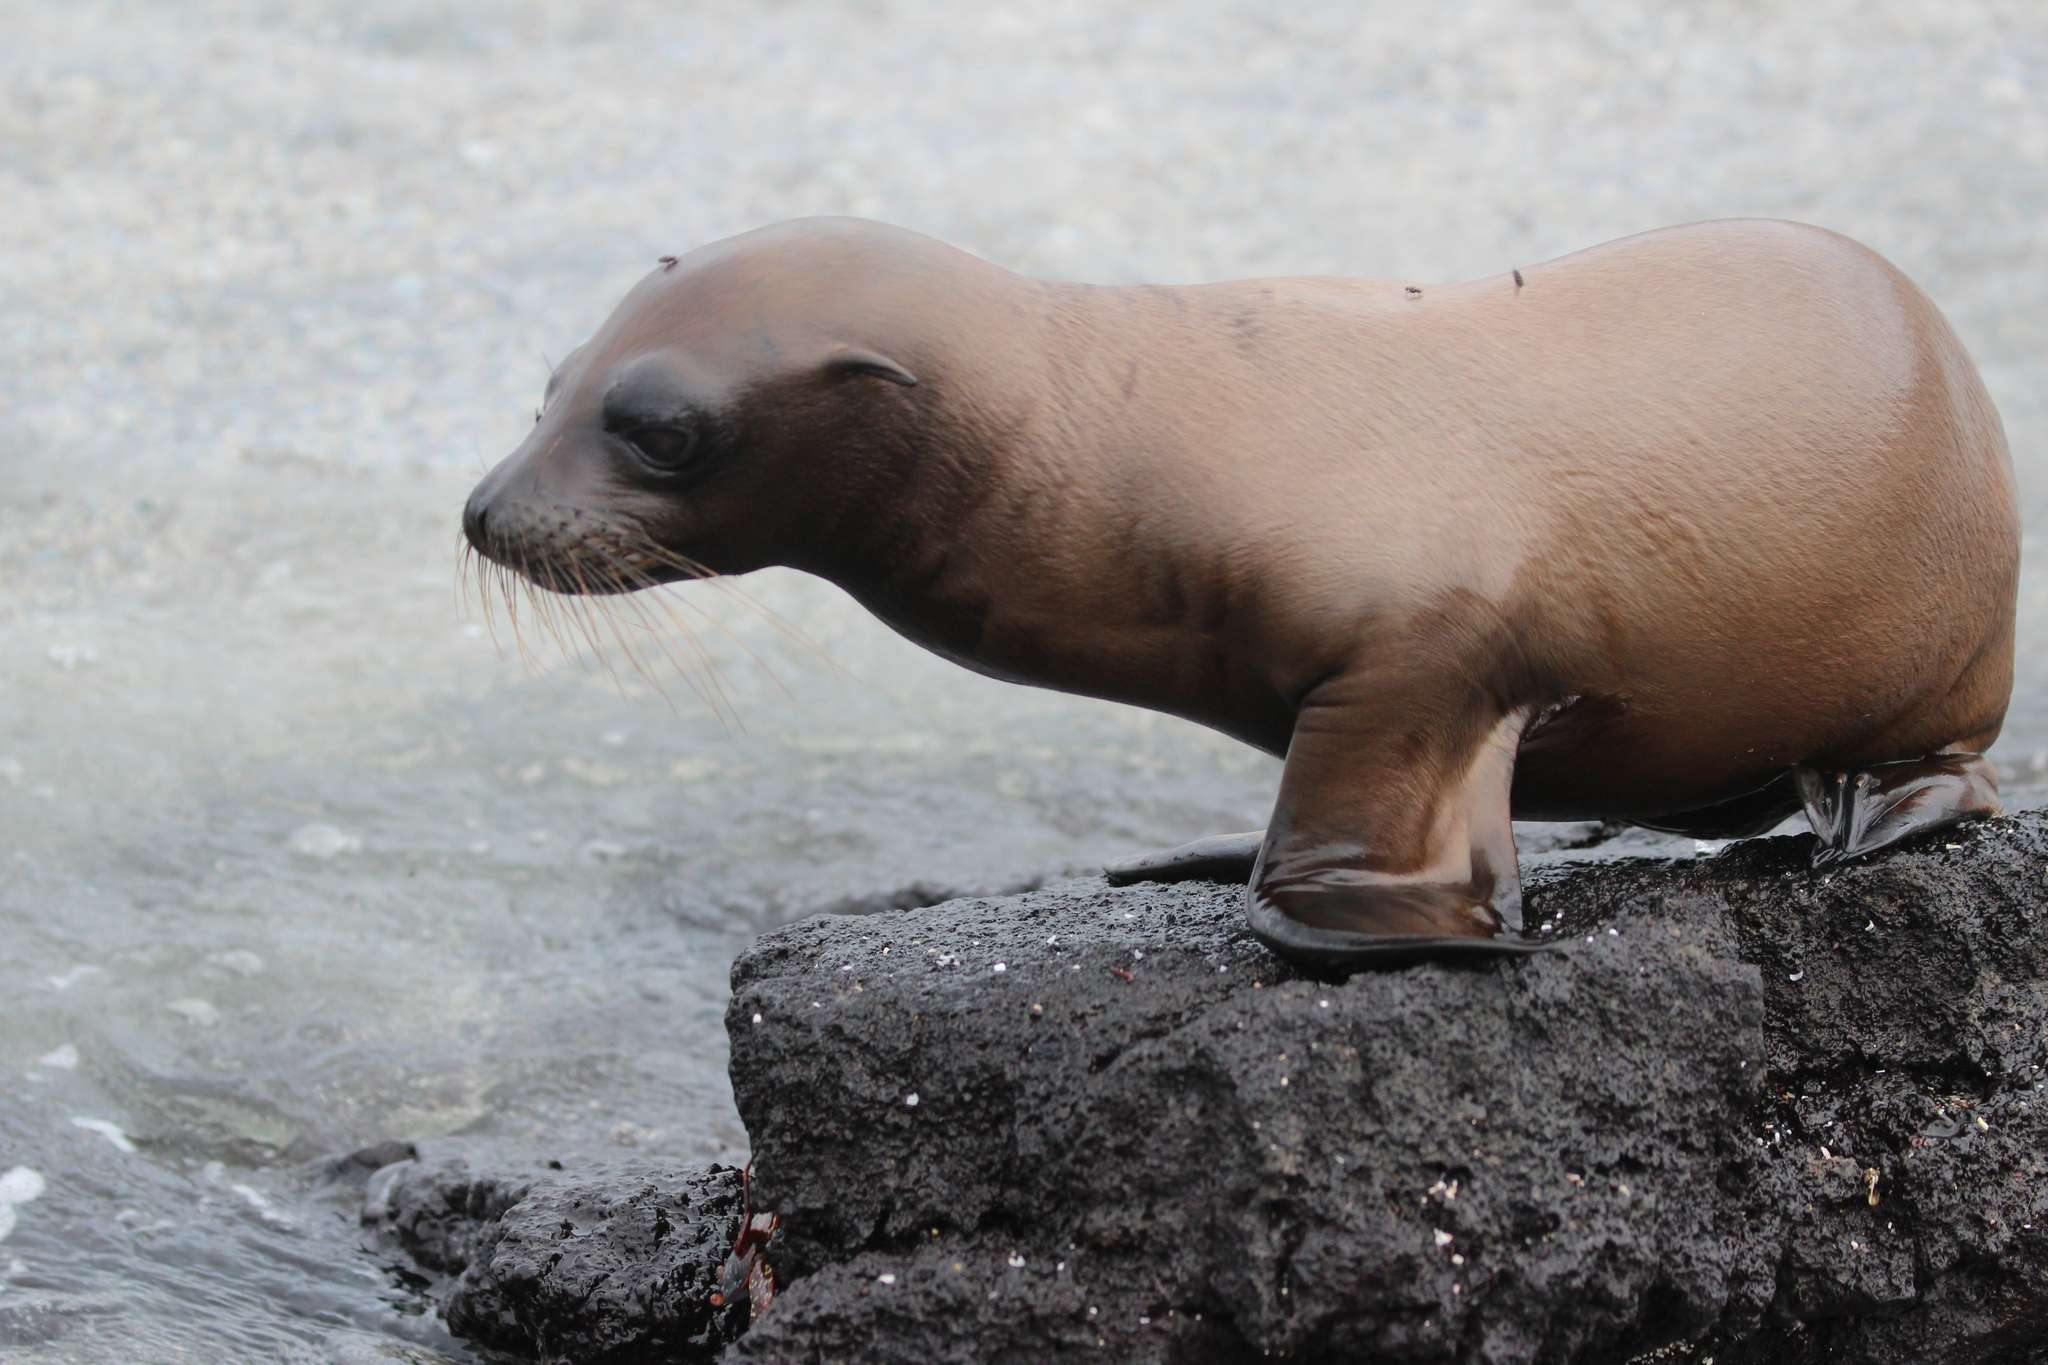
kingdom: Animalia
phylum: Chordata
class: Mammalia
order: Carnivora
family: Otariidae
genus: Zalophus
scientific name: Zalophus wollebaeki
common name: Galapagos sea lion
